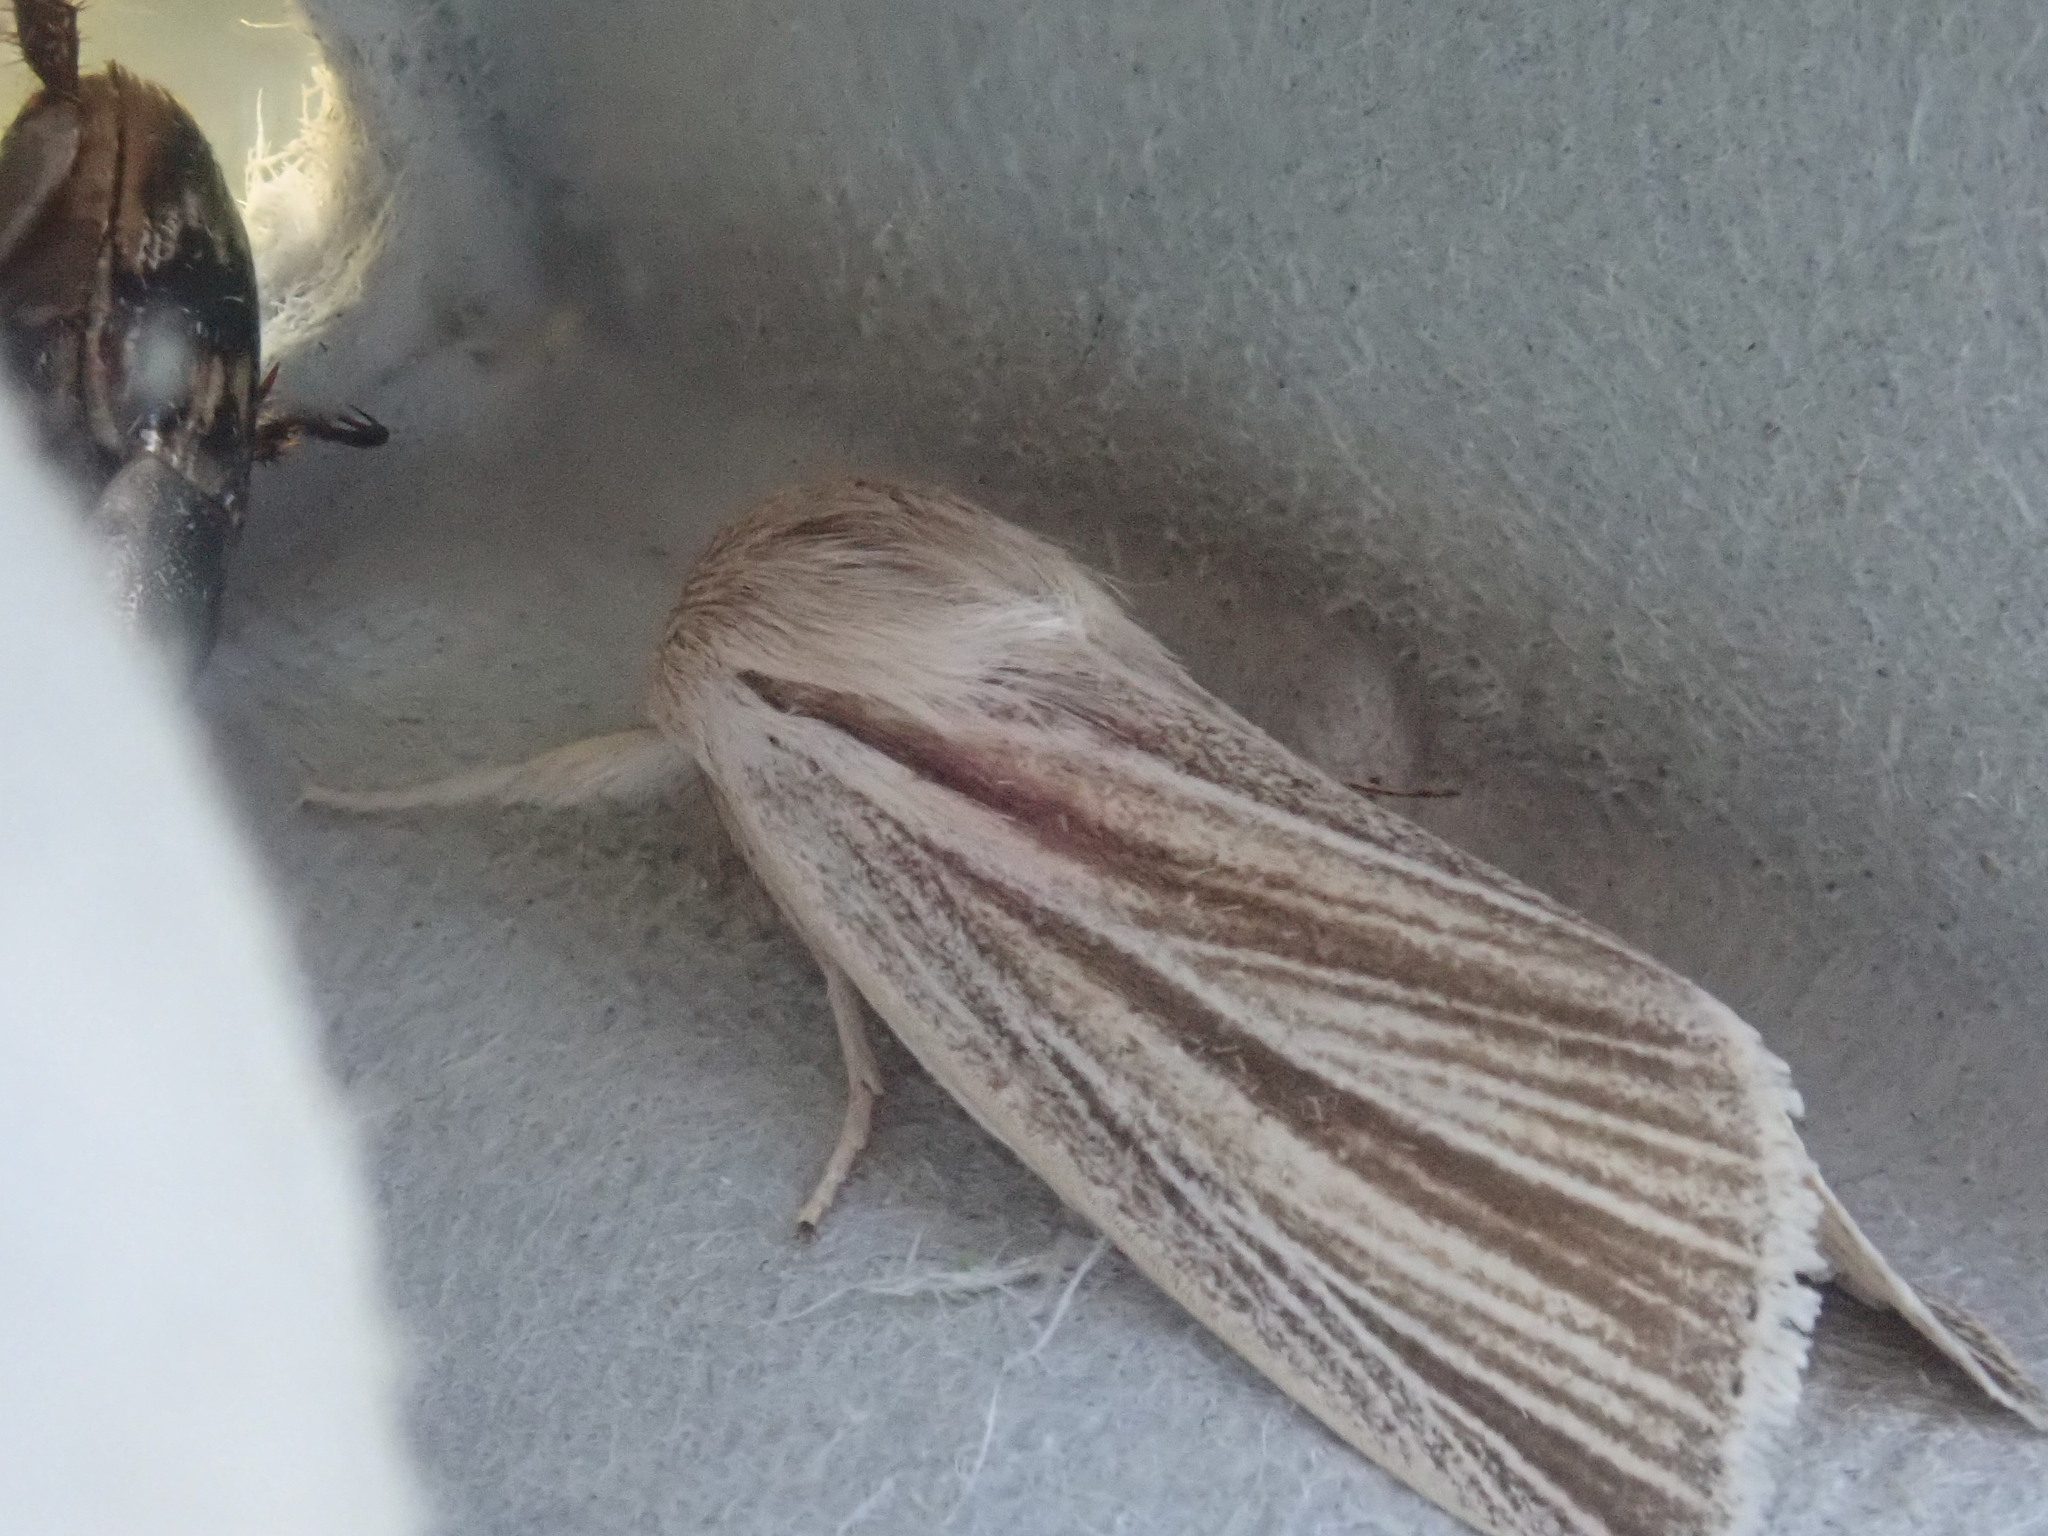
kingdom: Animalia
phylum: Arthropoda
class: Insecta
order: Lepidoptera
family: Noctuidae
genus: Acronicta
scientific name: Acronicta insularis
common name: Henry's marsh moth
